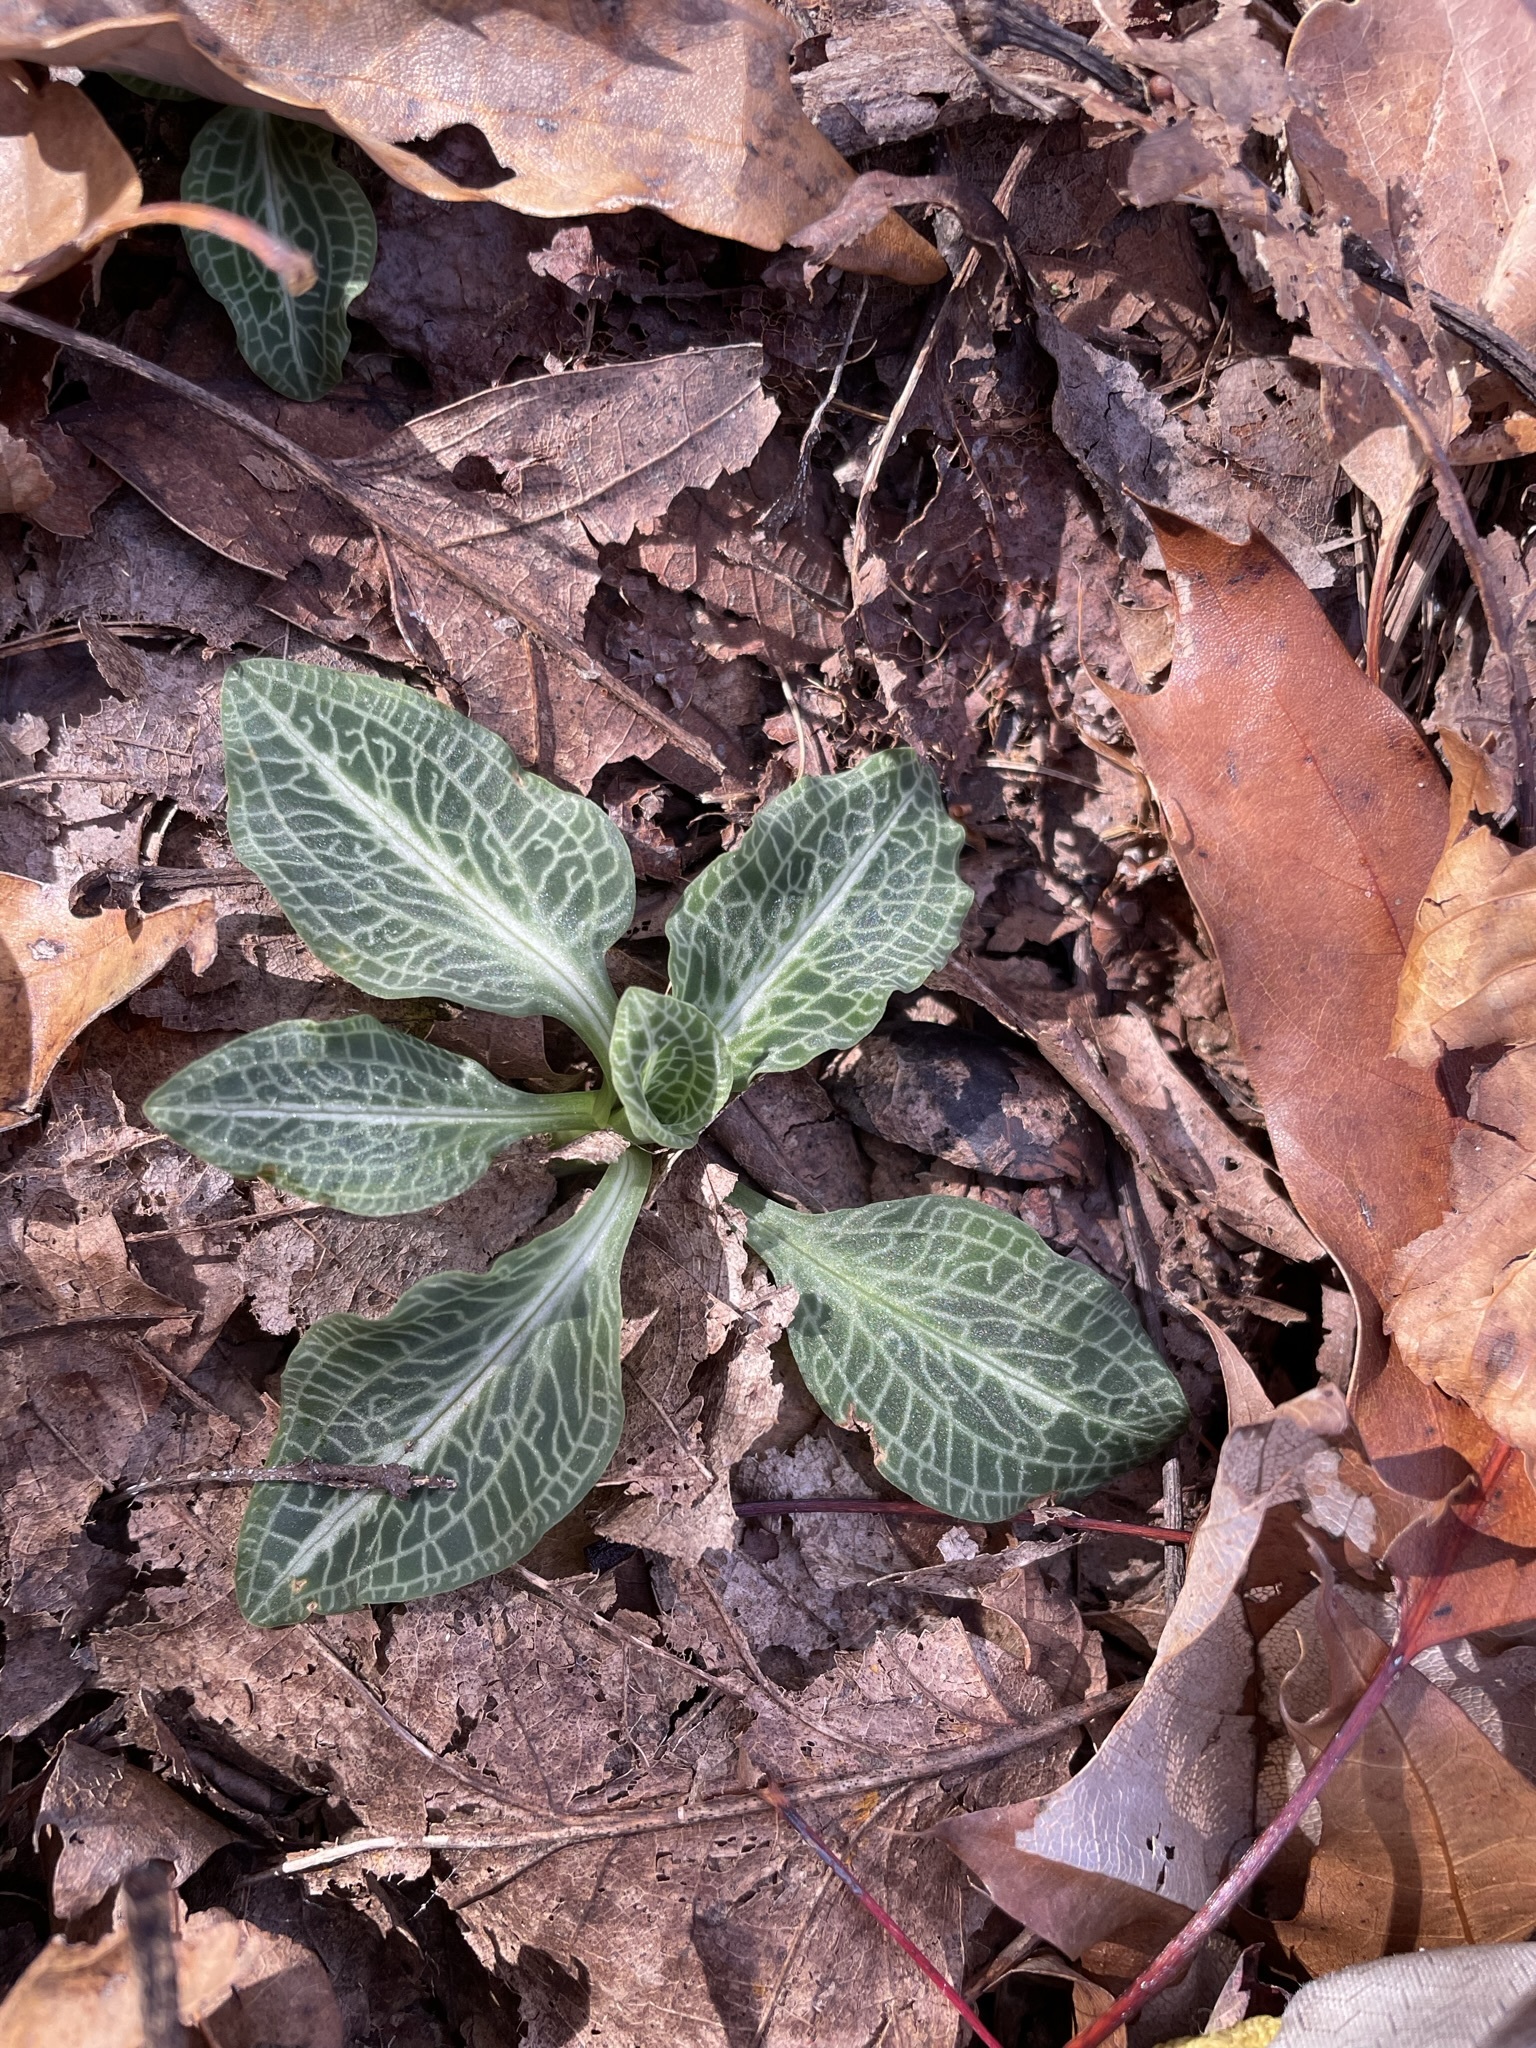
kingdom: Plantae
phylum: Tracheophyta
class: Liliopsida
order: Asparagales
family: Orchidaceae
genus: Goodyera
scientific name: Goodyera pubescens
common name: Downy rattlesnake-plantain
